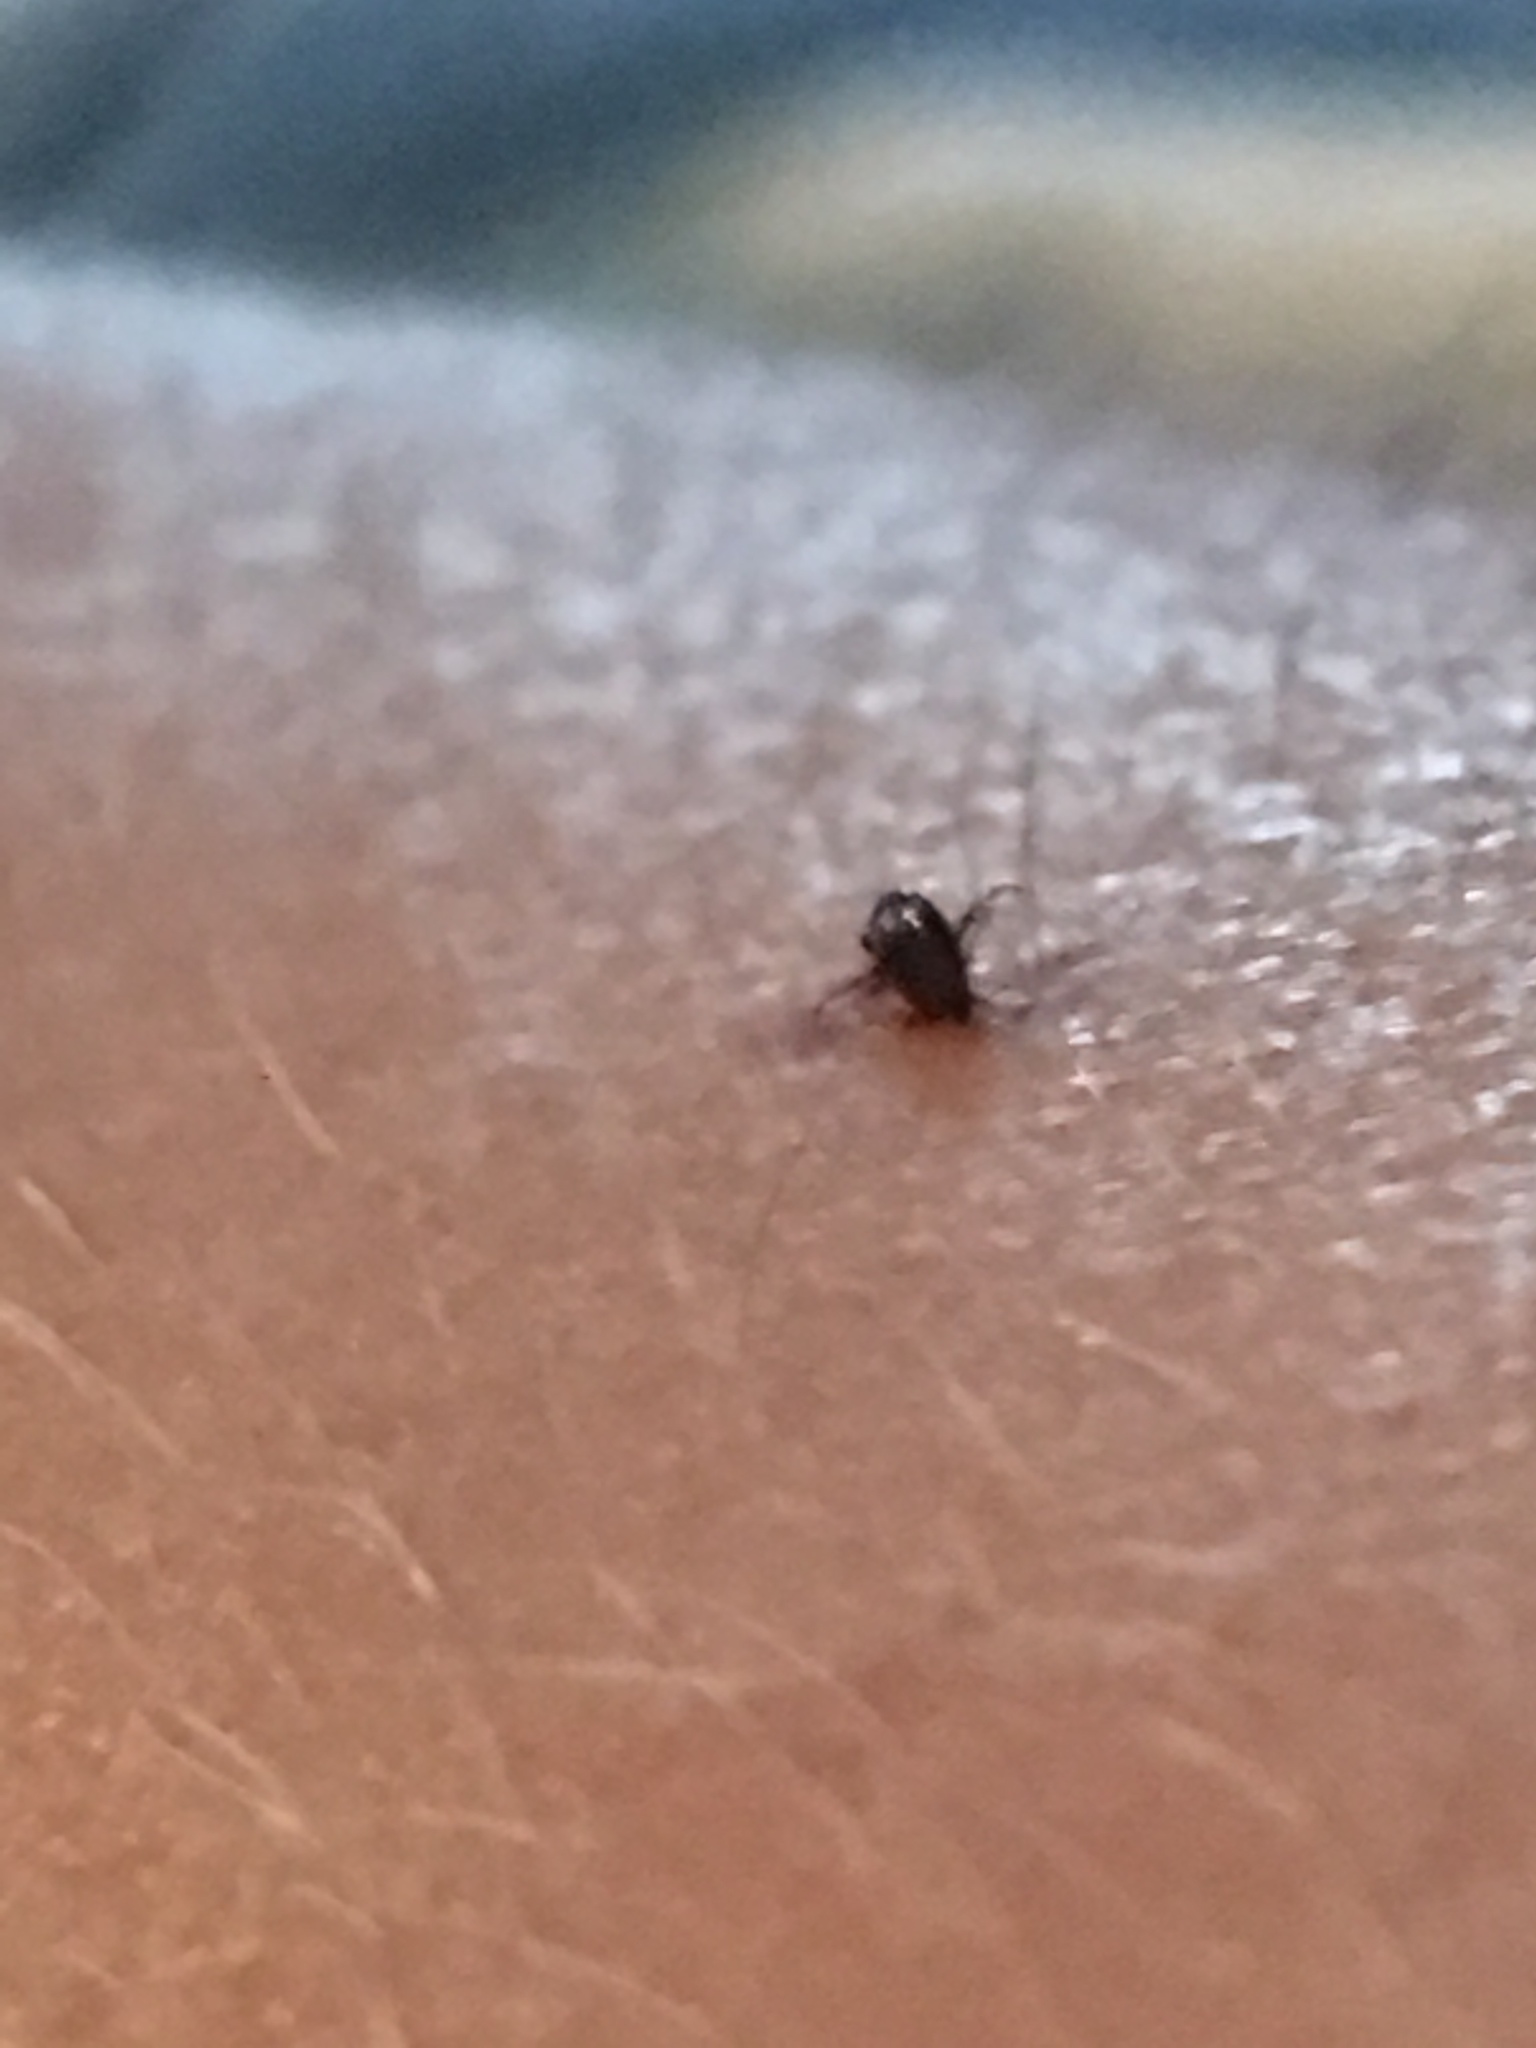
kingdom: Animalia
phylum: Arthropoda
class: Insecta
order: Siphonaptera
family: Pulicidae
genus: Ctenocephalides
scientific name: Ctenocephalides felis
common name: Cat flea
